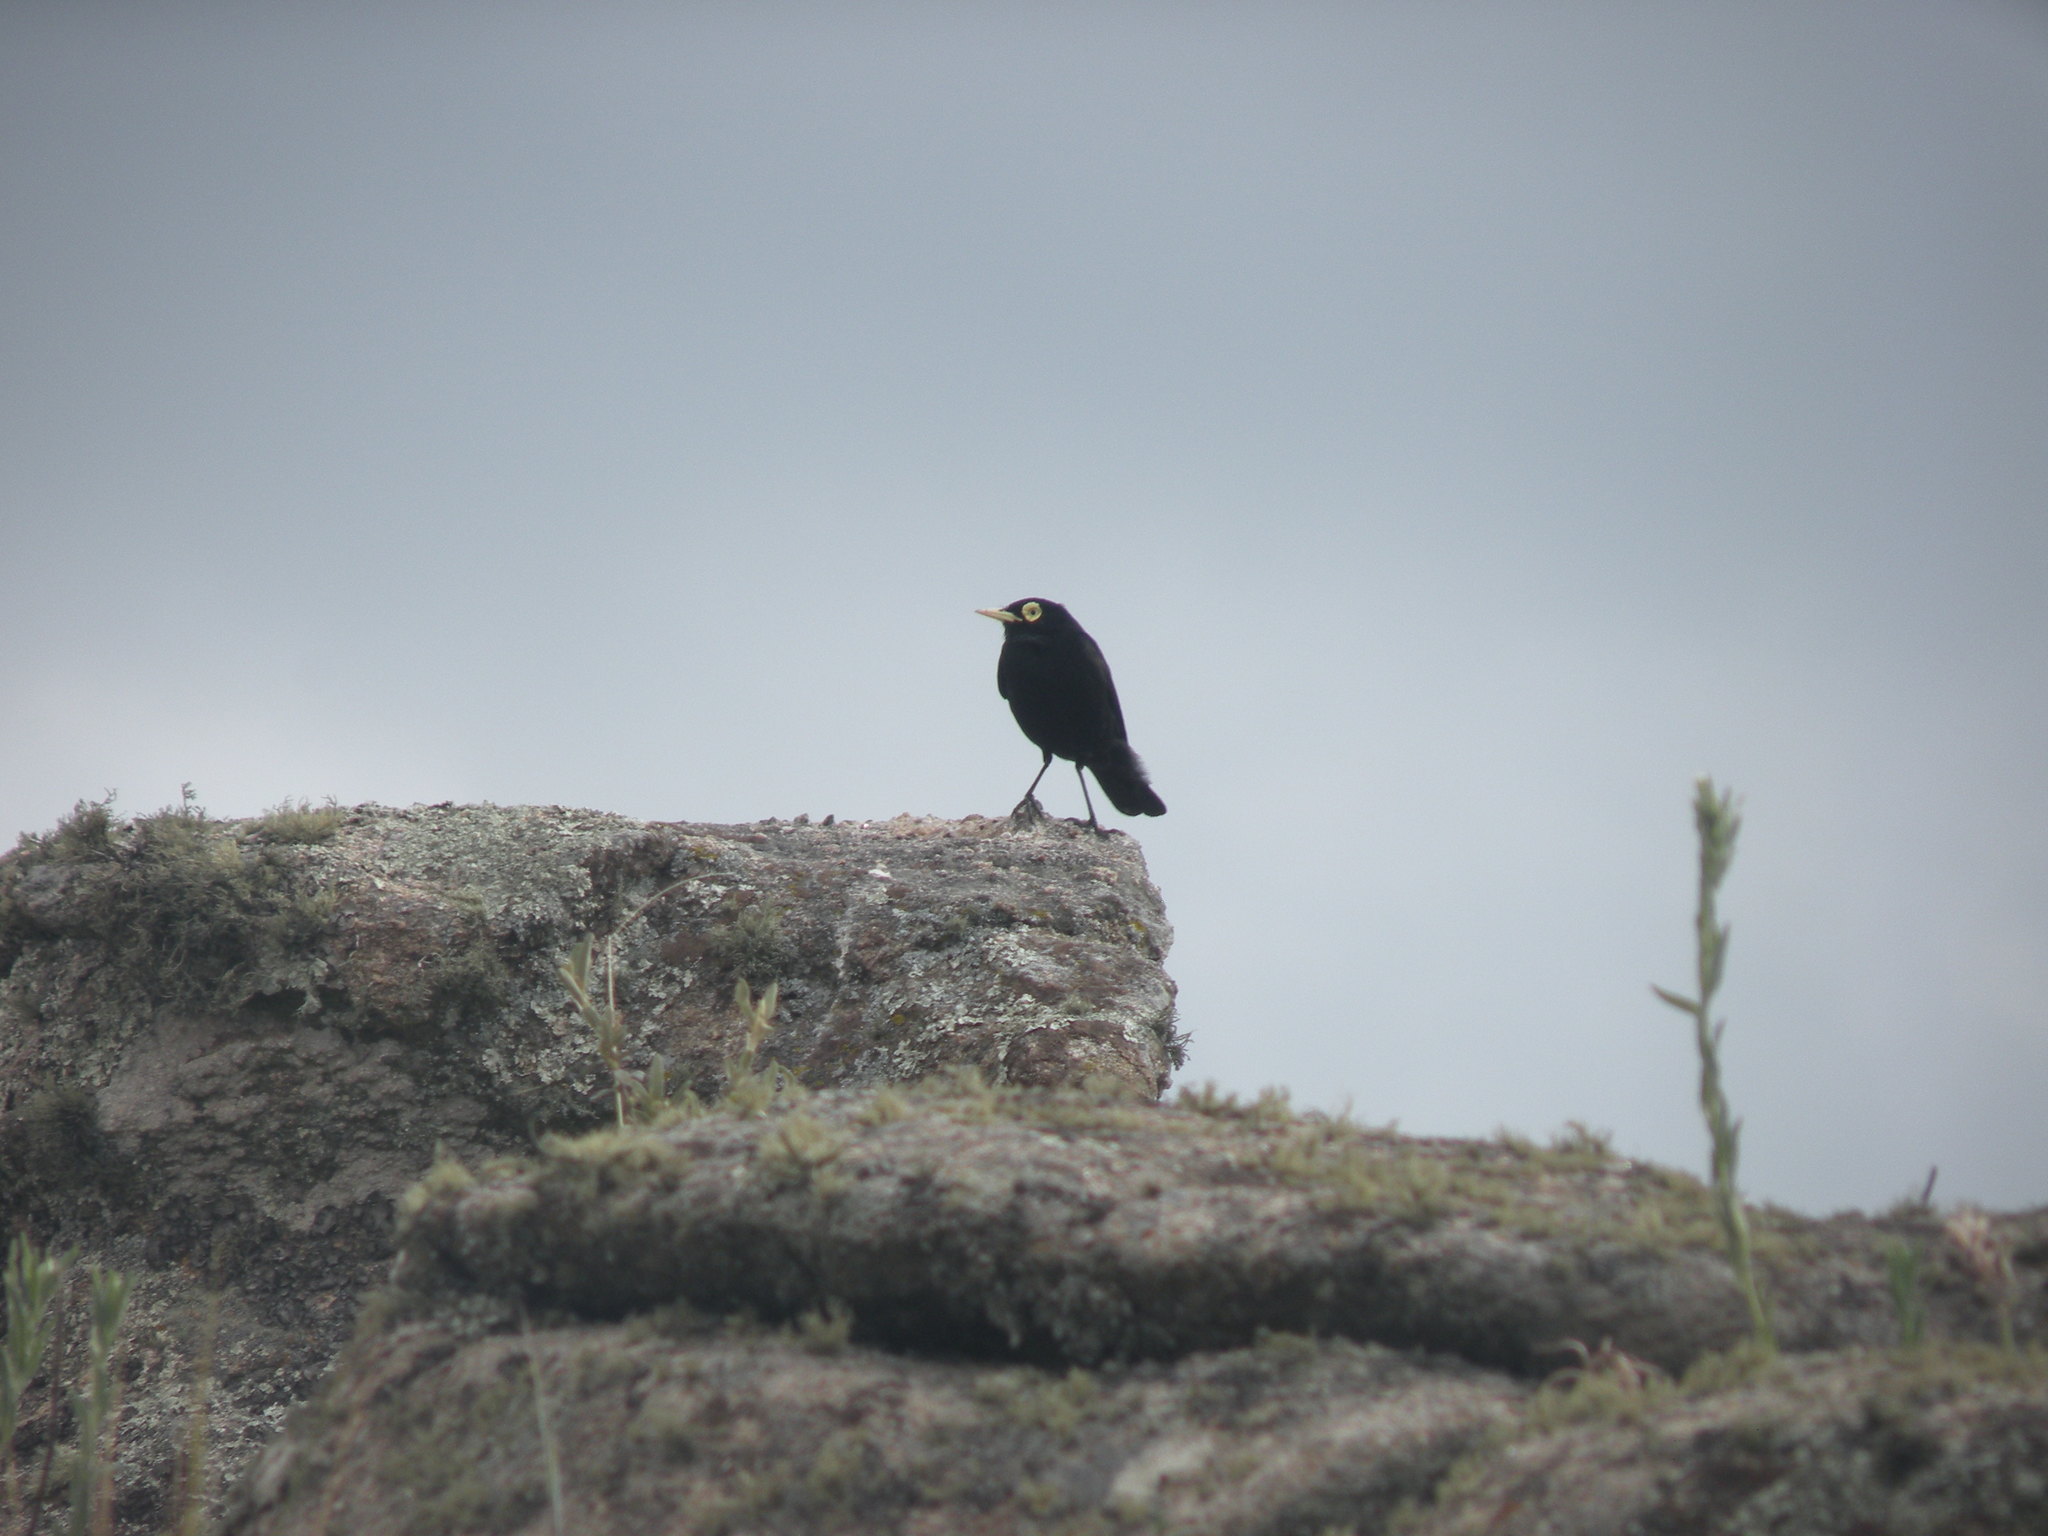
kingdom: Animalia
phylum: Chordata
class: Aves
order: Passeriformes
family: Tyrannidae
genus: Hymenops
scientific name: Hymenops perspicillatus
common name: Spectacled tyrant
